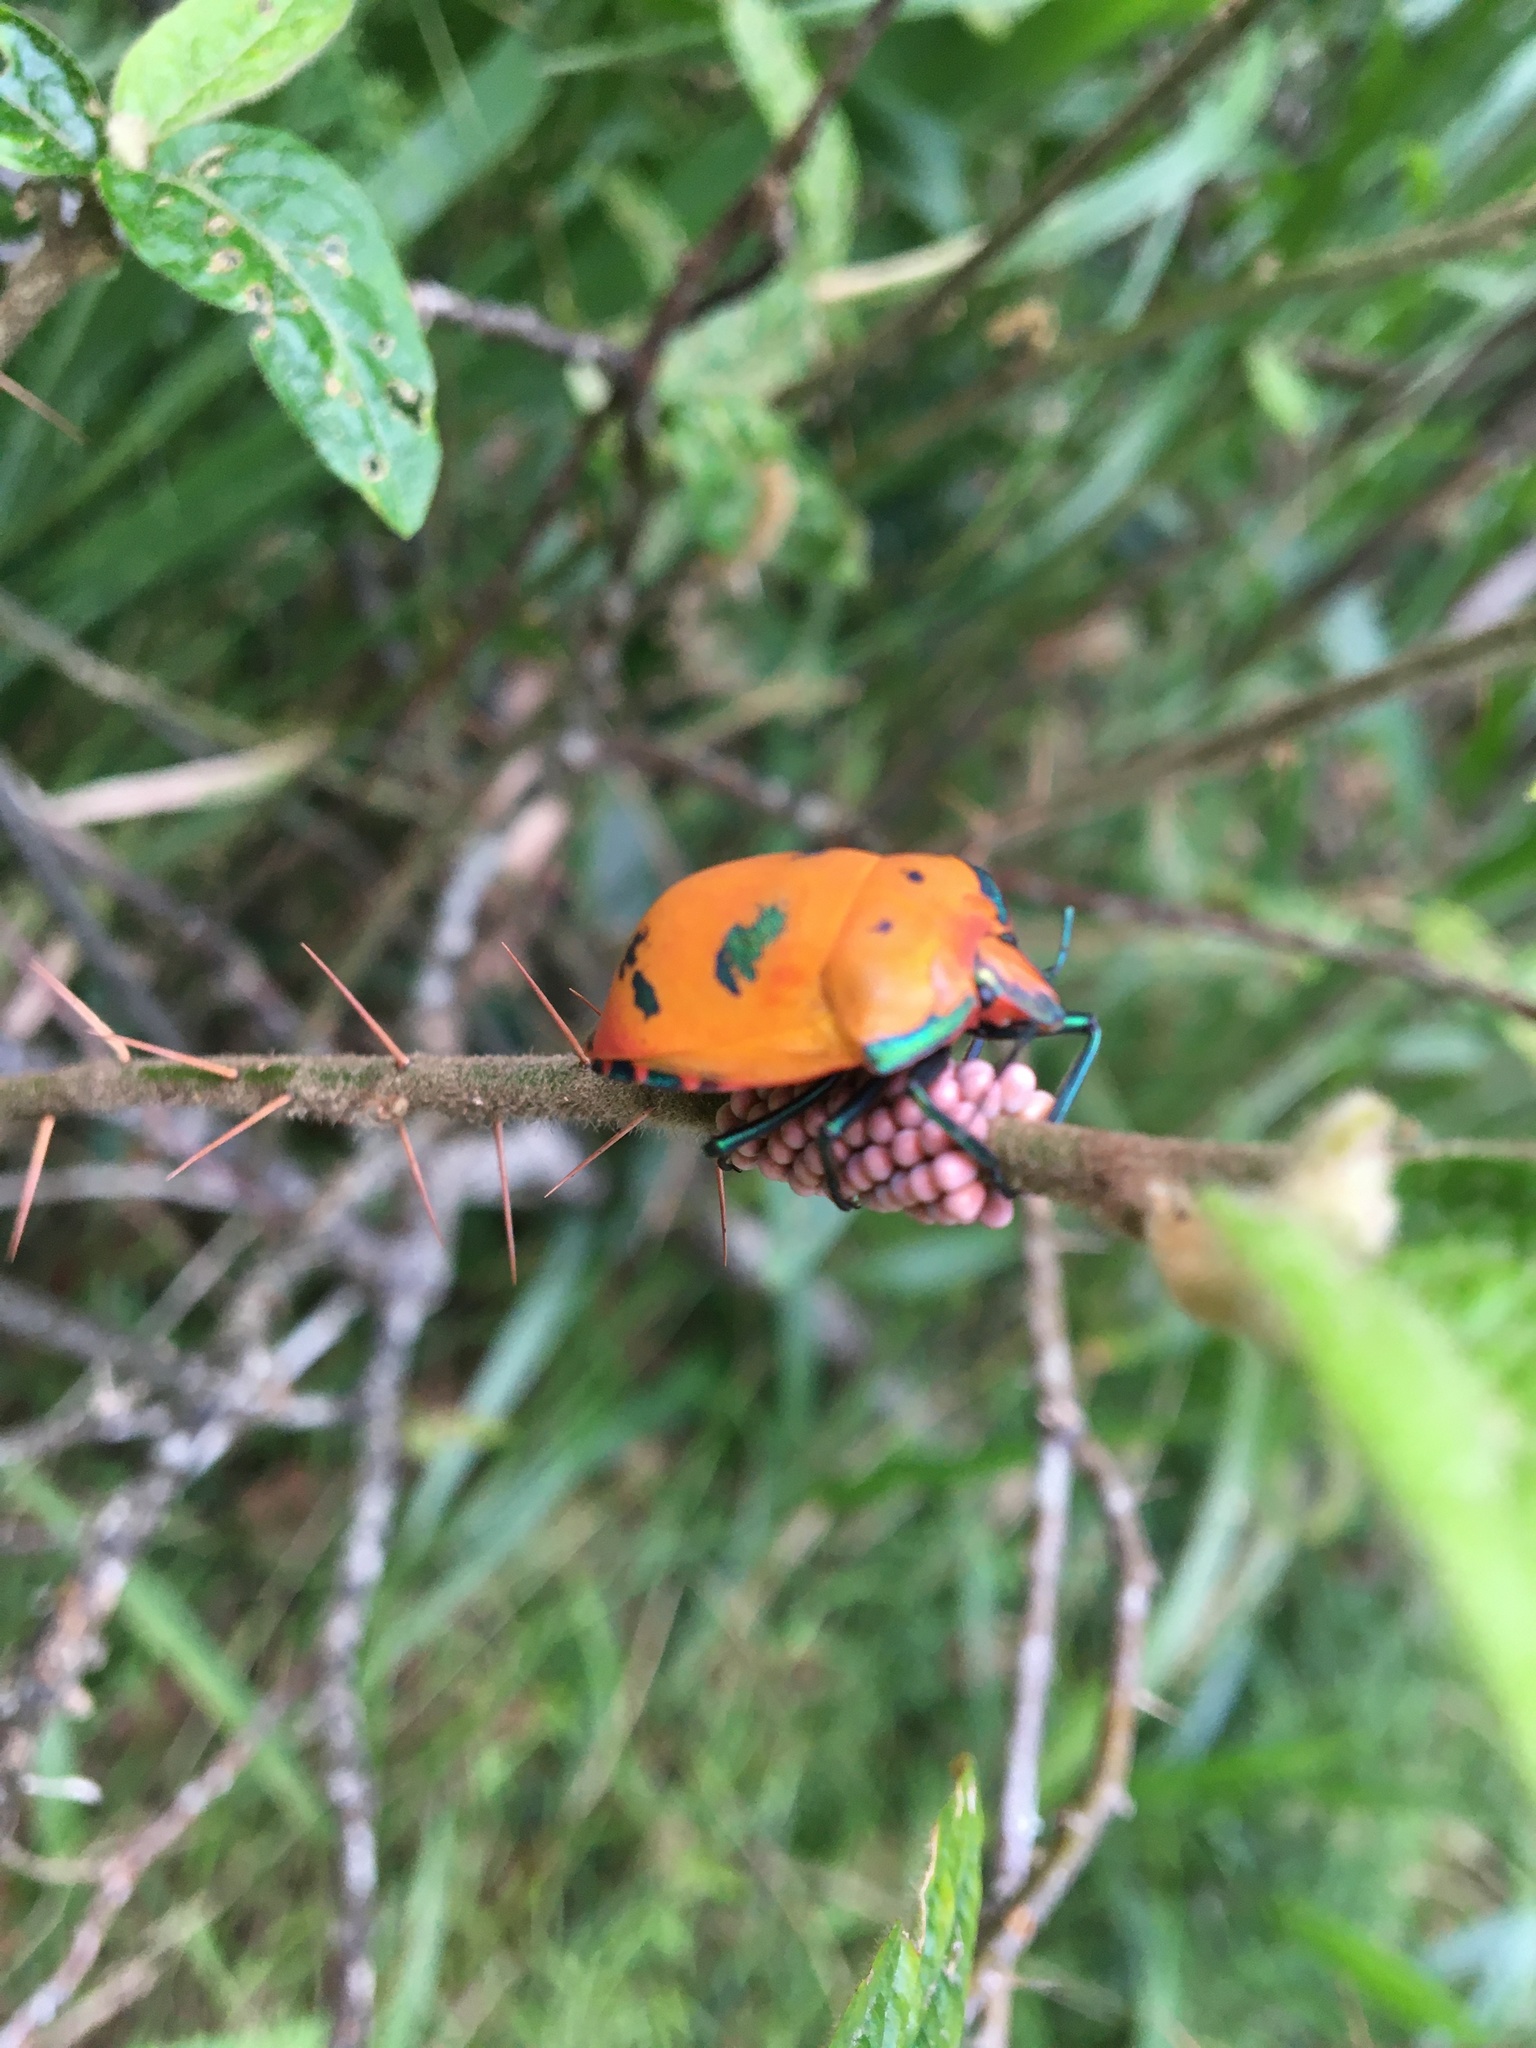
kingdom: Animalia
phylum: Arthropoda
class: Insecta
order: Hemiptera
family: Scutelleridae
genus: Tectocoris
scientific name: Tectocoris diophthalmus
